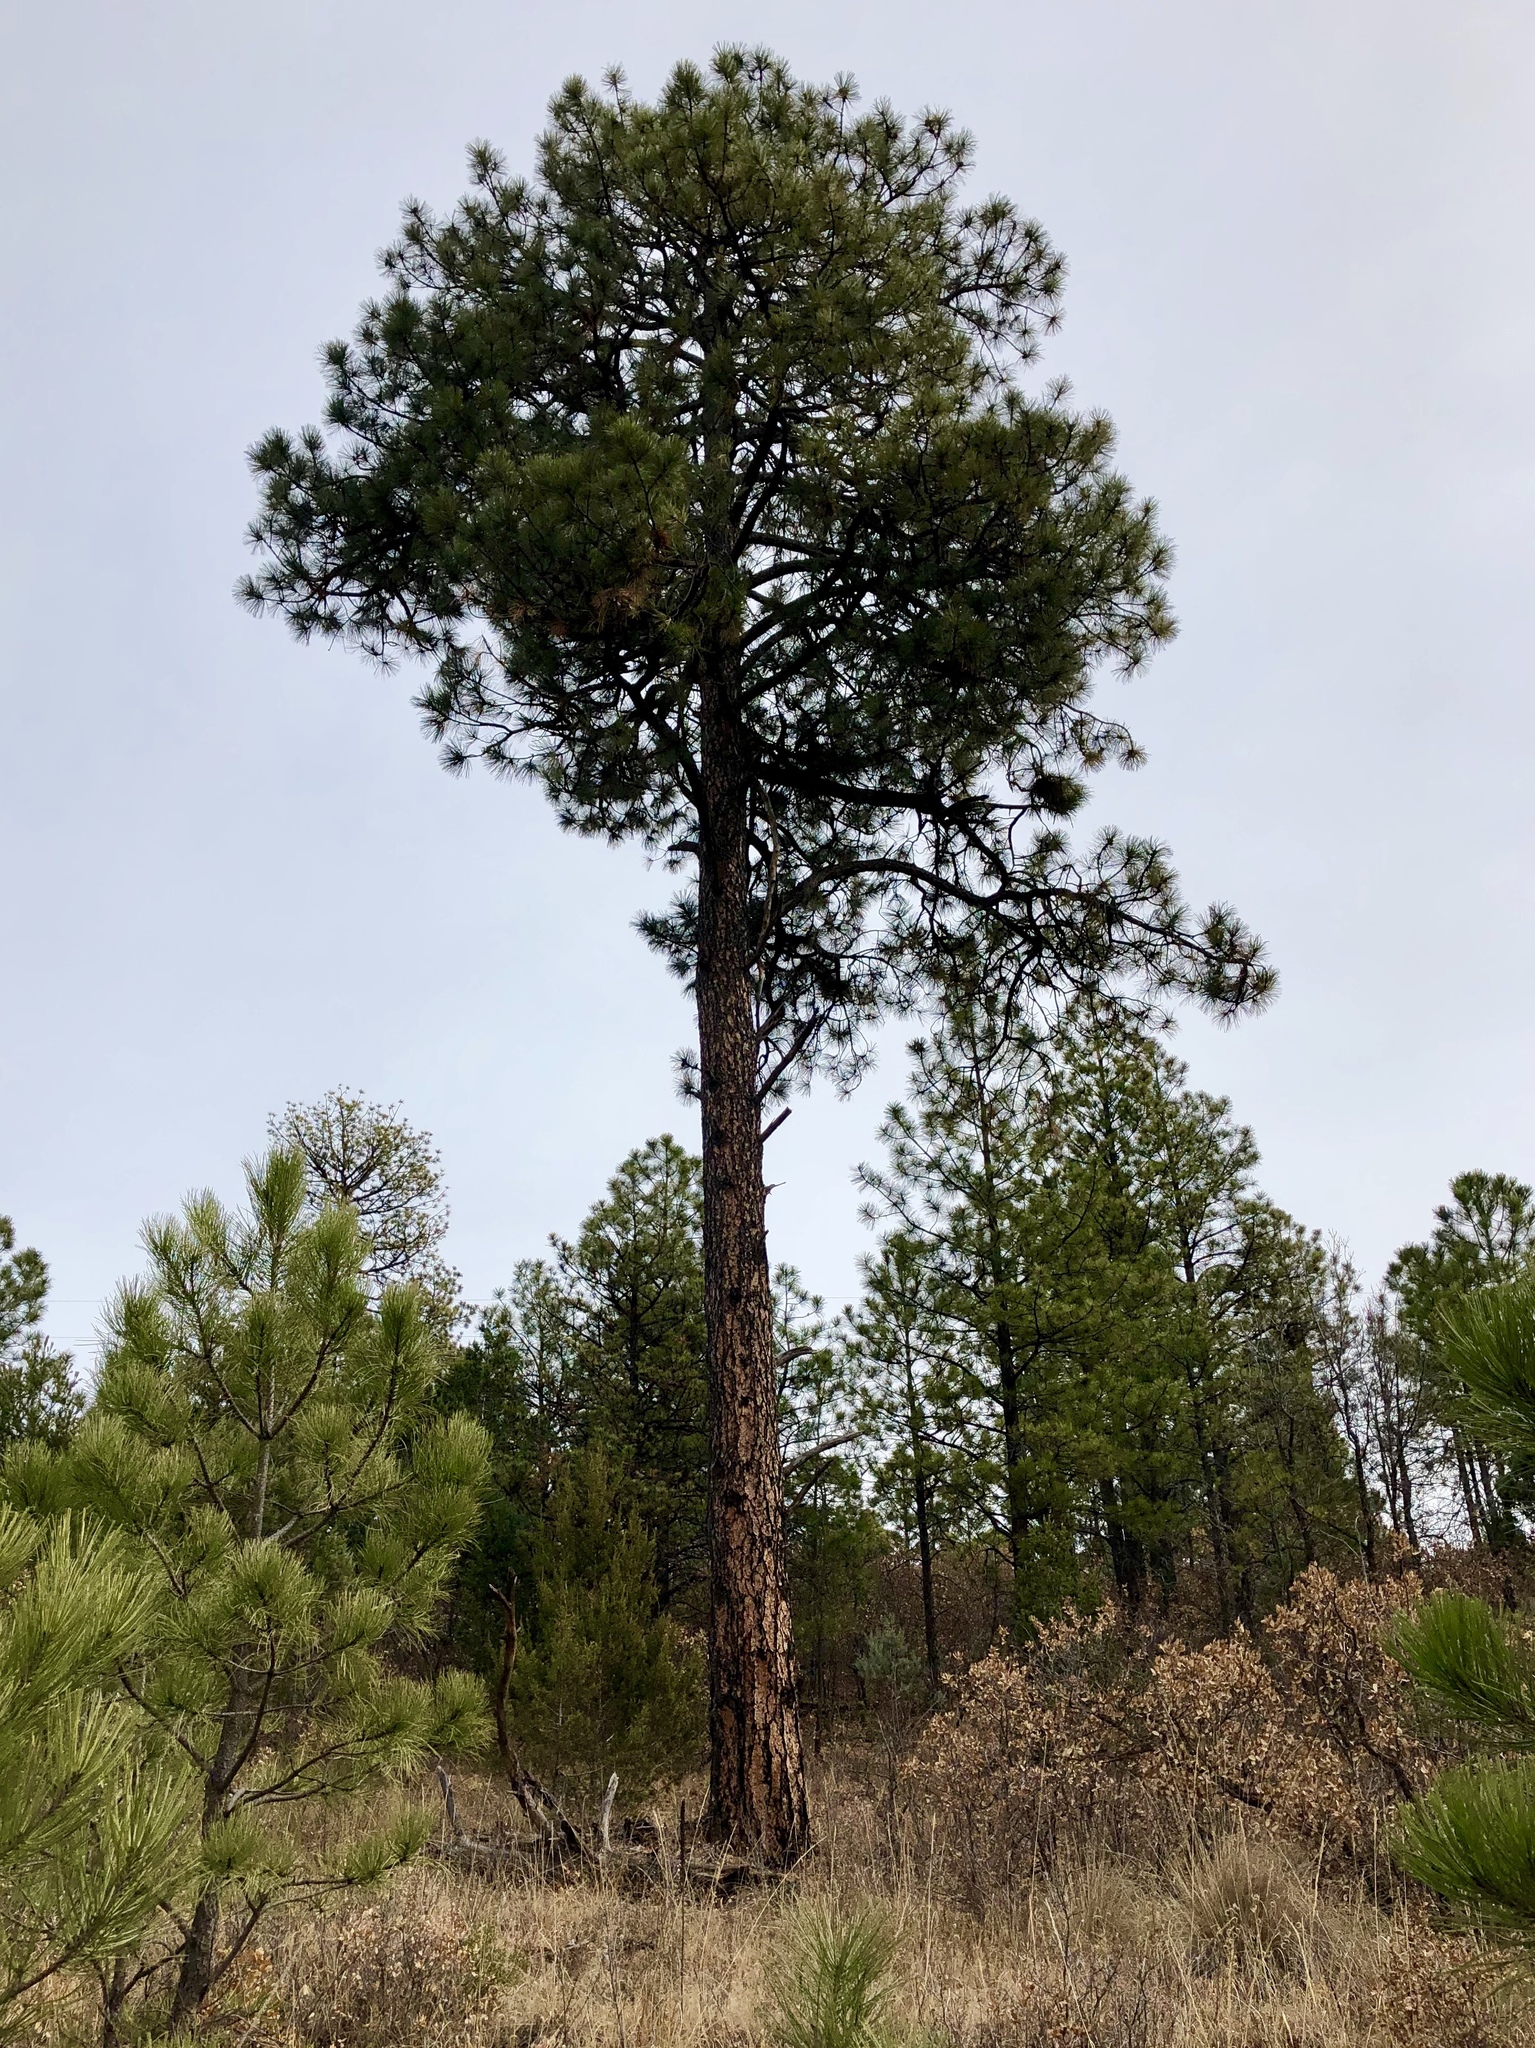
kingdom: Plantae
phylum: Tracheophyta
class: Pinopsida
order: Pinales
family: Pinaceae
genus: Pinus
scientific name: Pinus ponderosa
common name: Western yellow-pine
